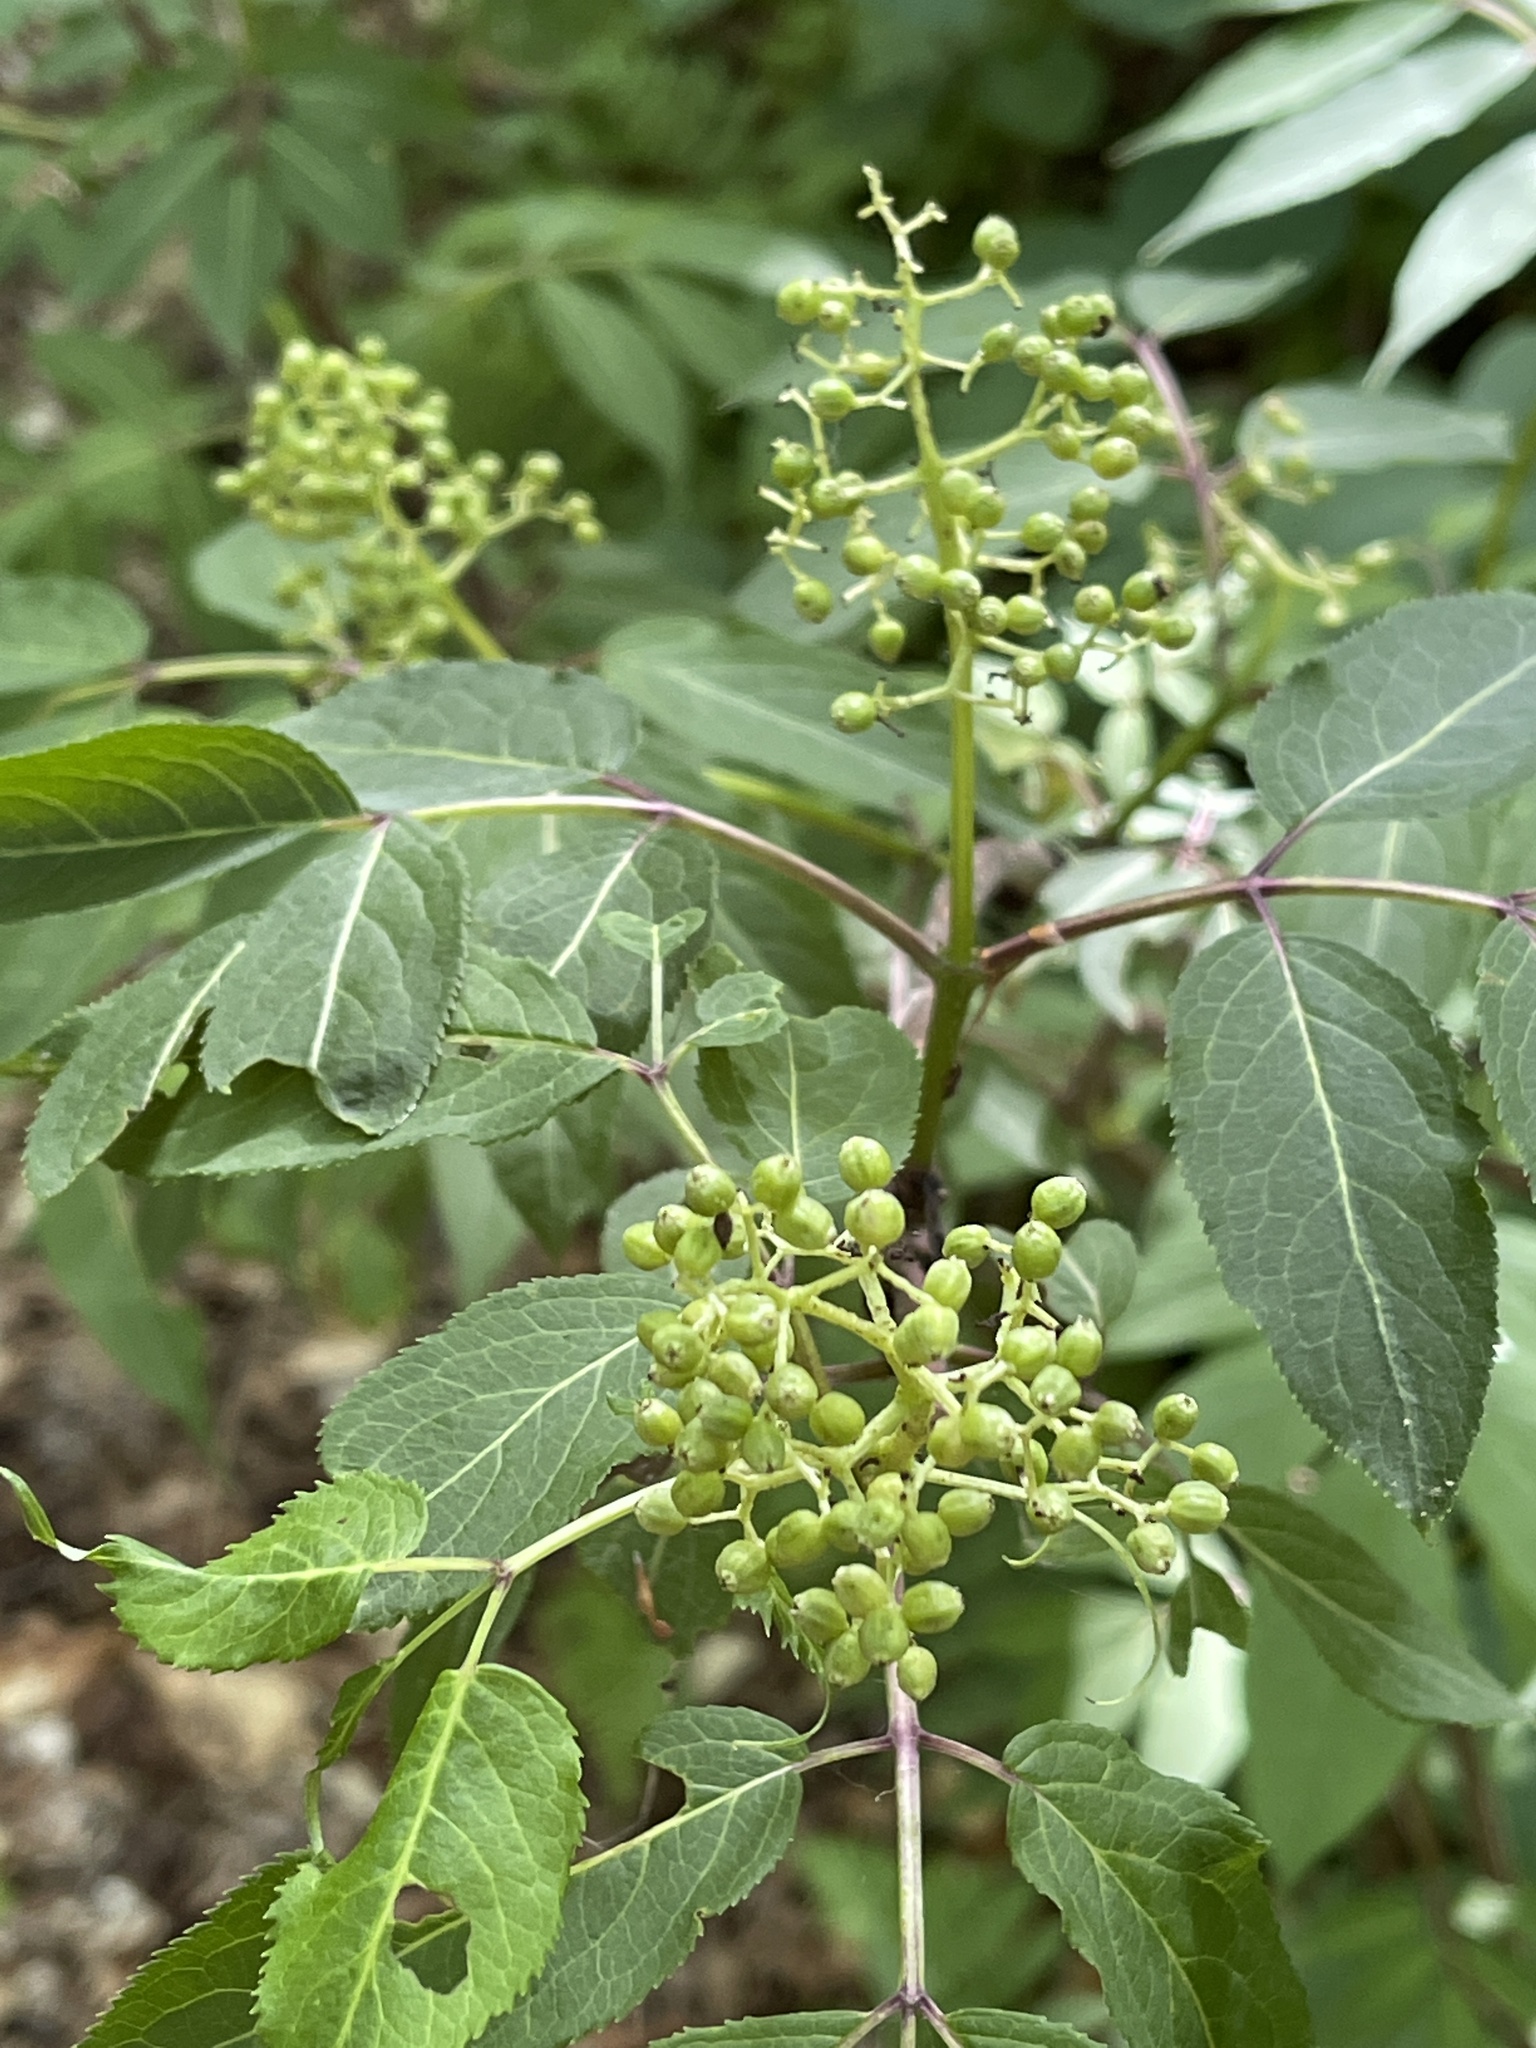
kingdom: Plantae
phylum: Tracheophyta
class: Magnoliopsida
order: Dipsacales
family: Viburnaceae
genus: Sambucus
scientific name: Sambucus racemosa
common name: Red-berried elder
